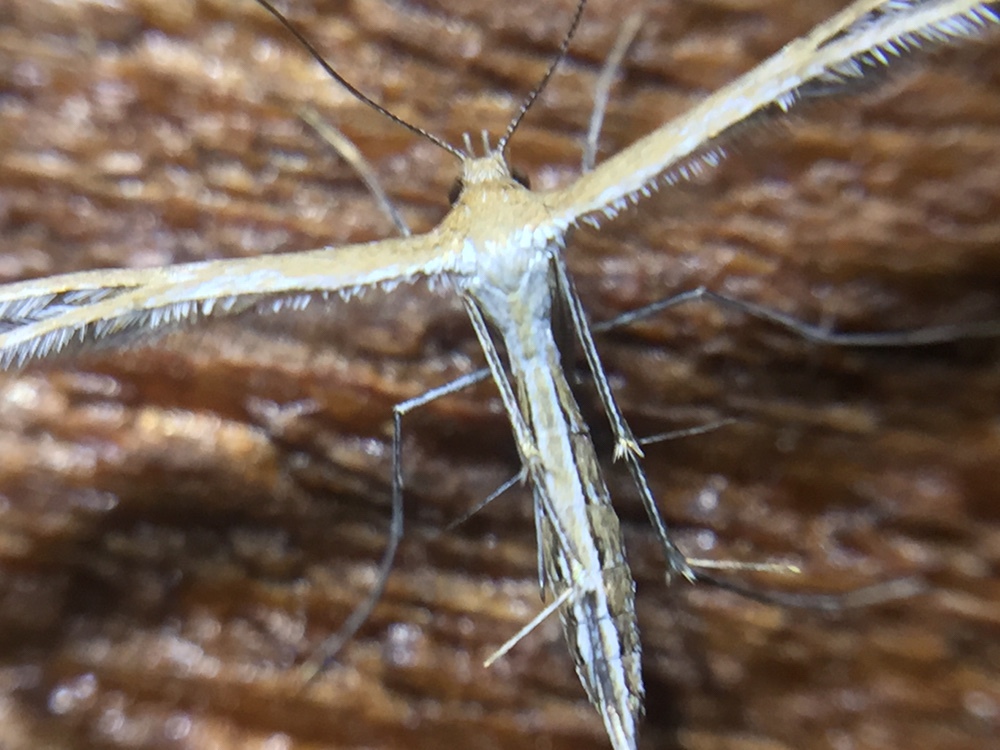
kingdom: Animalia
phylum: Arthropoda
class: Insecta
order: Lepidoptera
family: Pterophoridae
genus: Stangeia
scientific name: Stangeia xerodes
